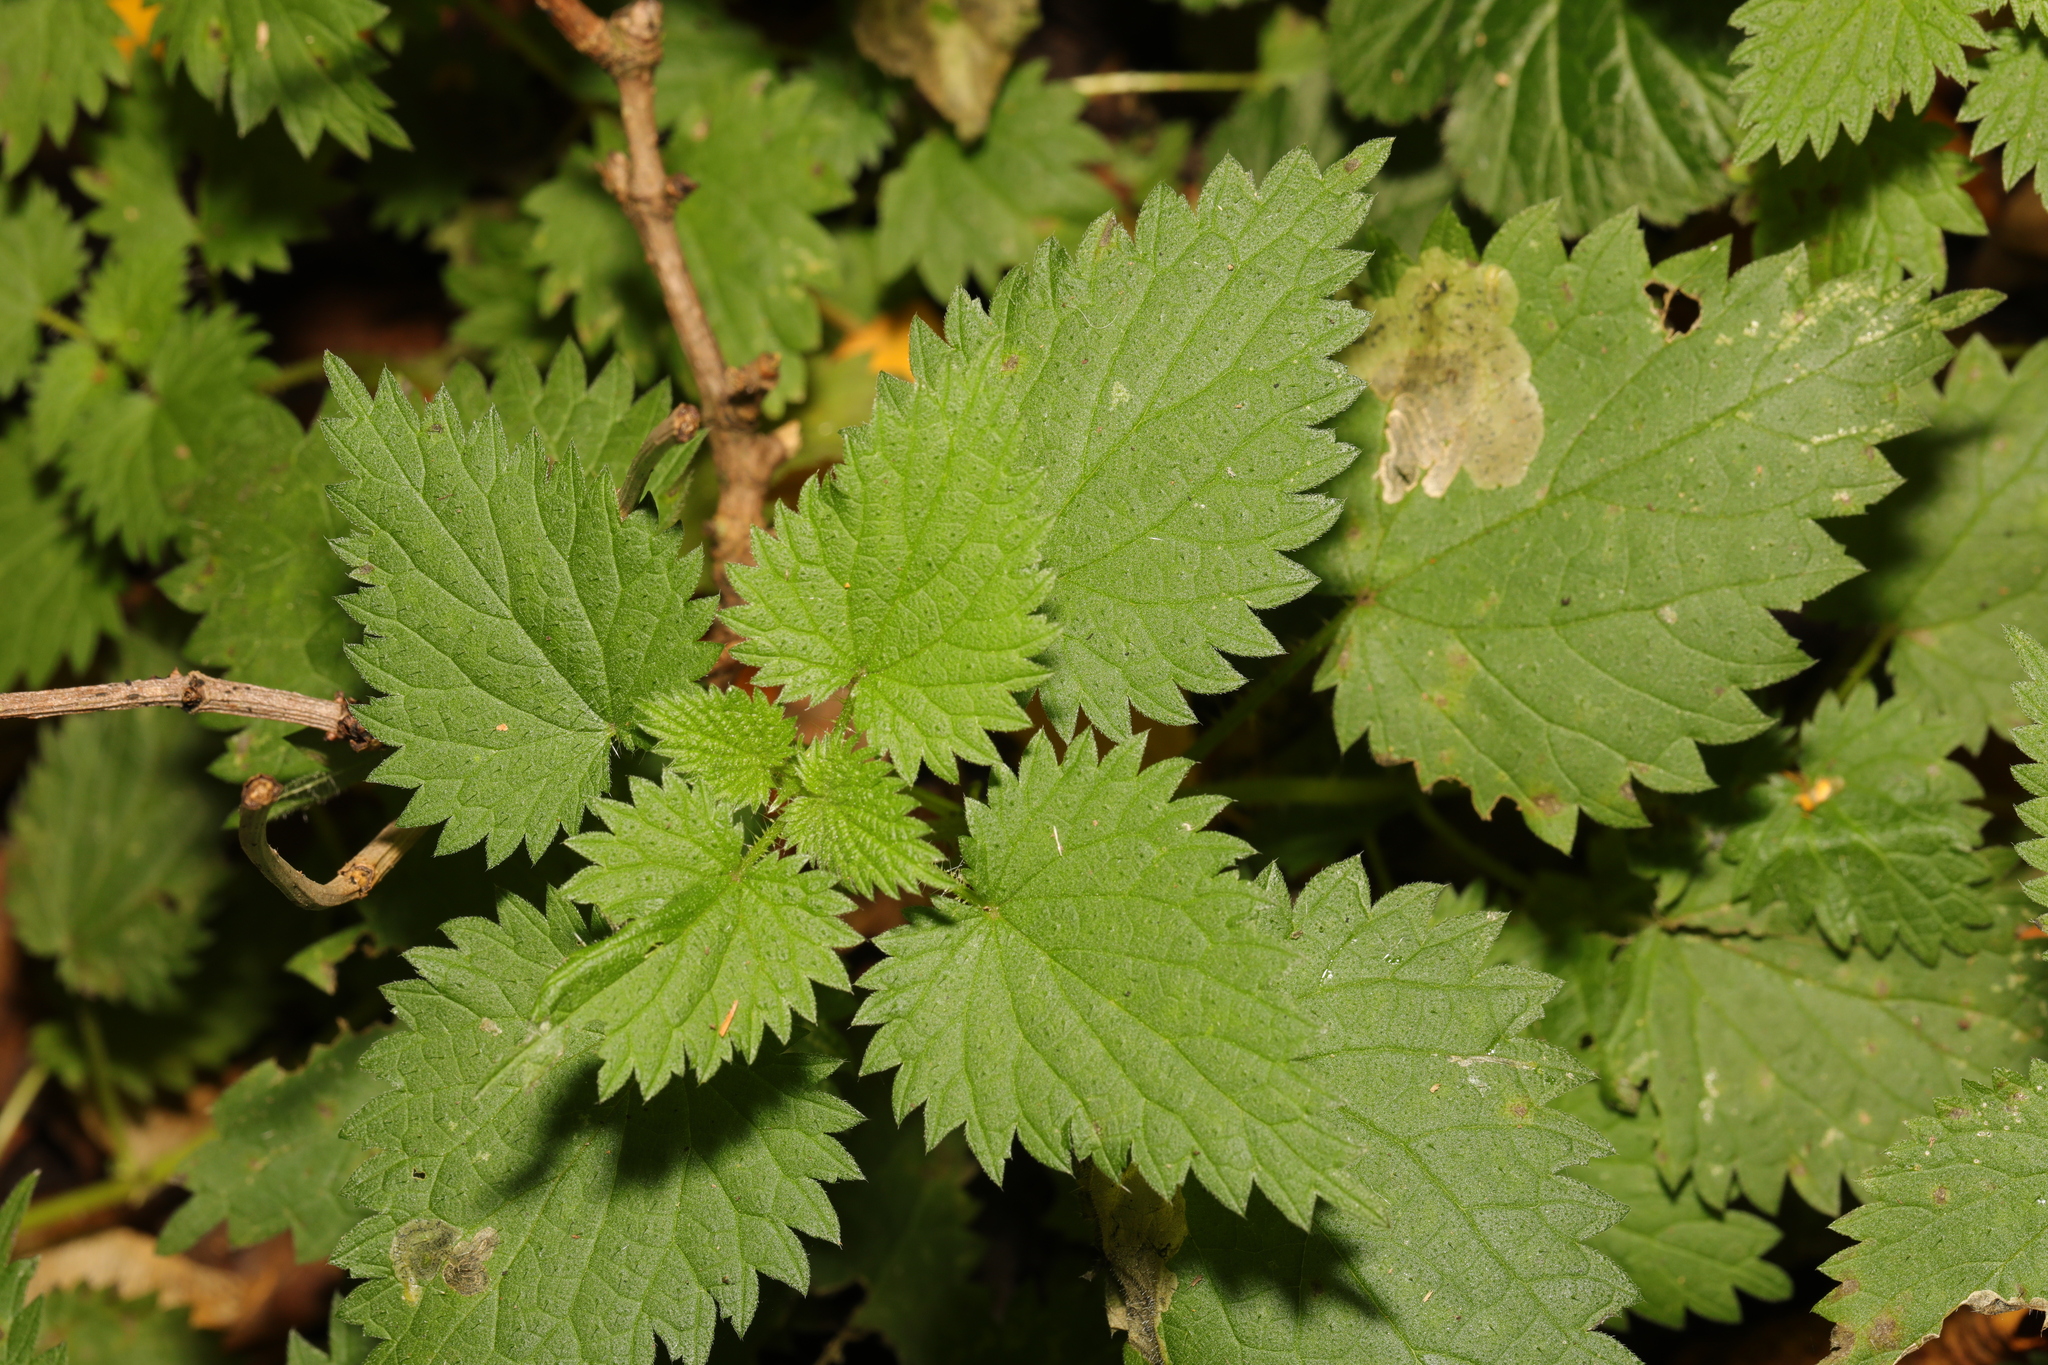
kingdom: Plantae
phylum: Tracheophyta
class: Magnoliopsida
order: Rosales
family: Urticaceae
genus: Urtica
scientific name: Urtica dioica
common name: Common nettle
